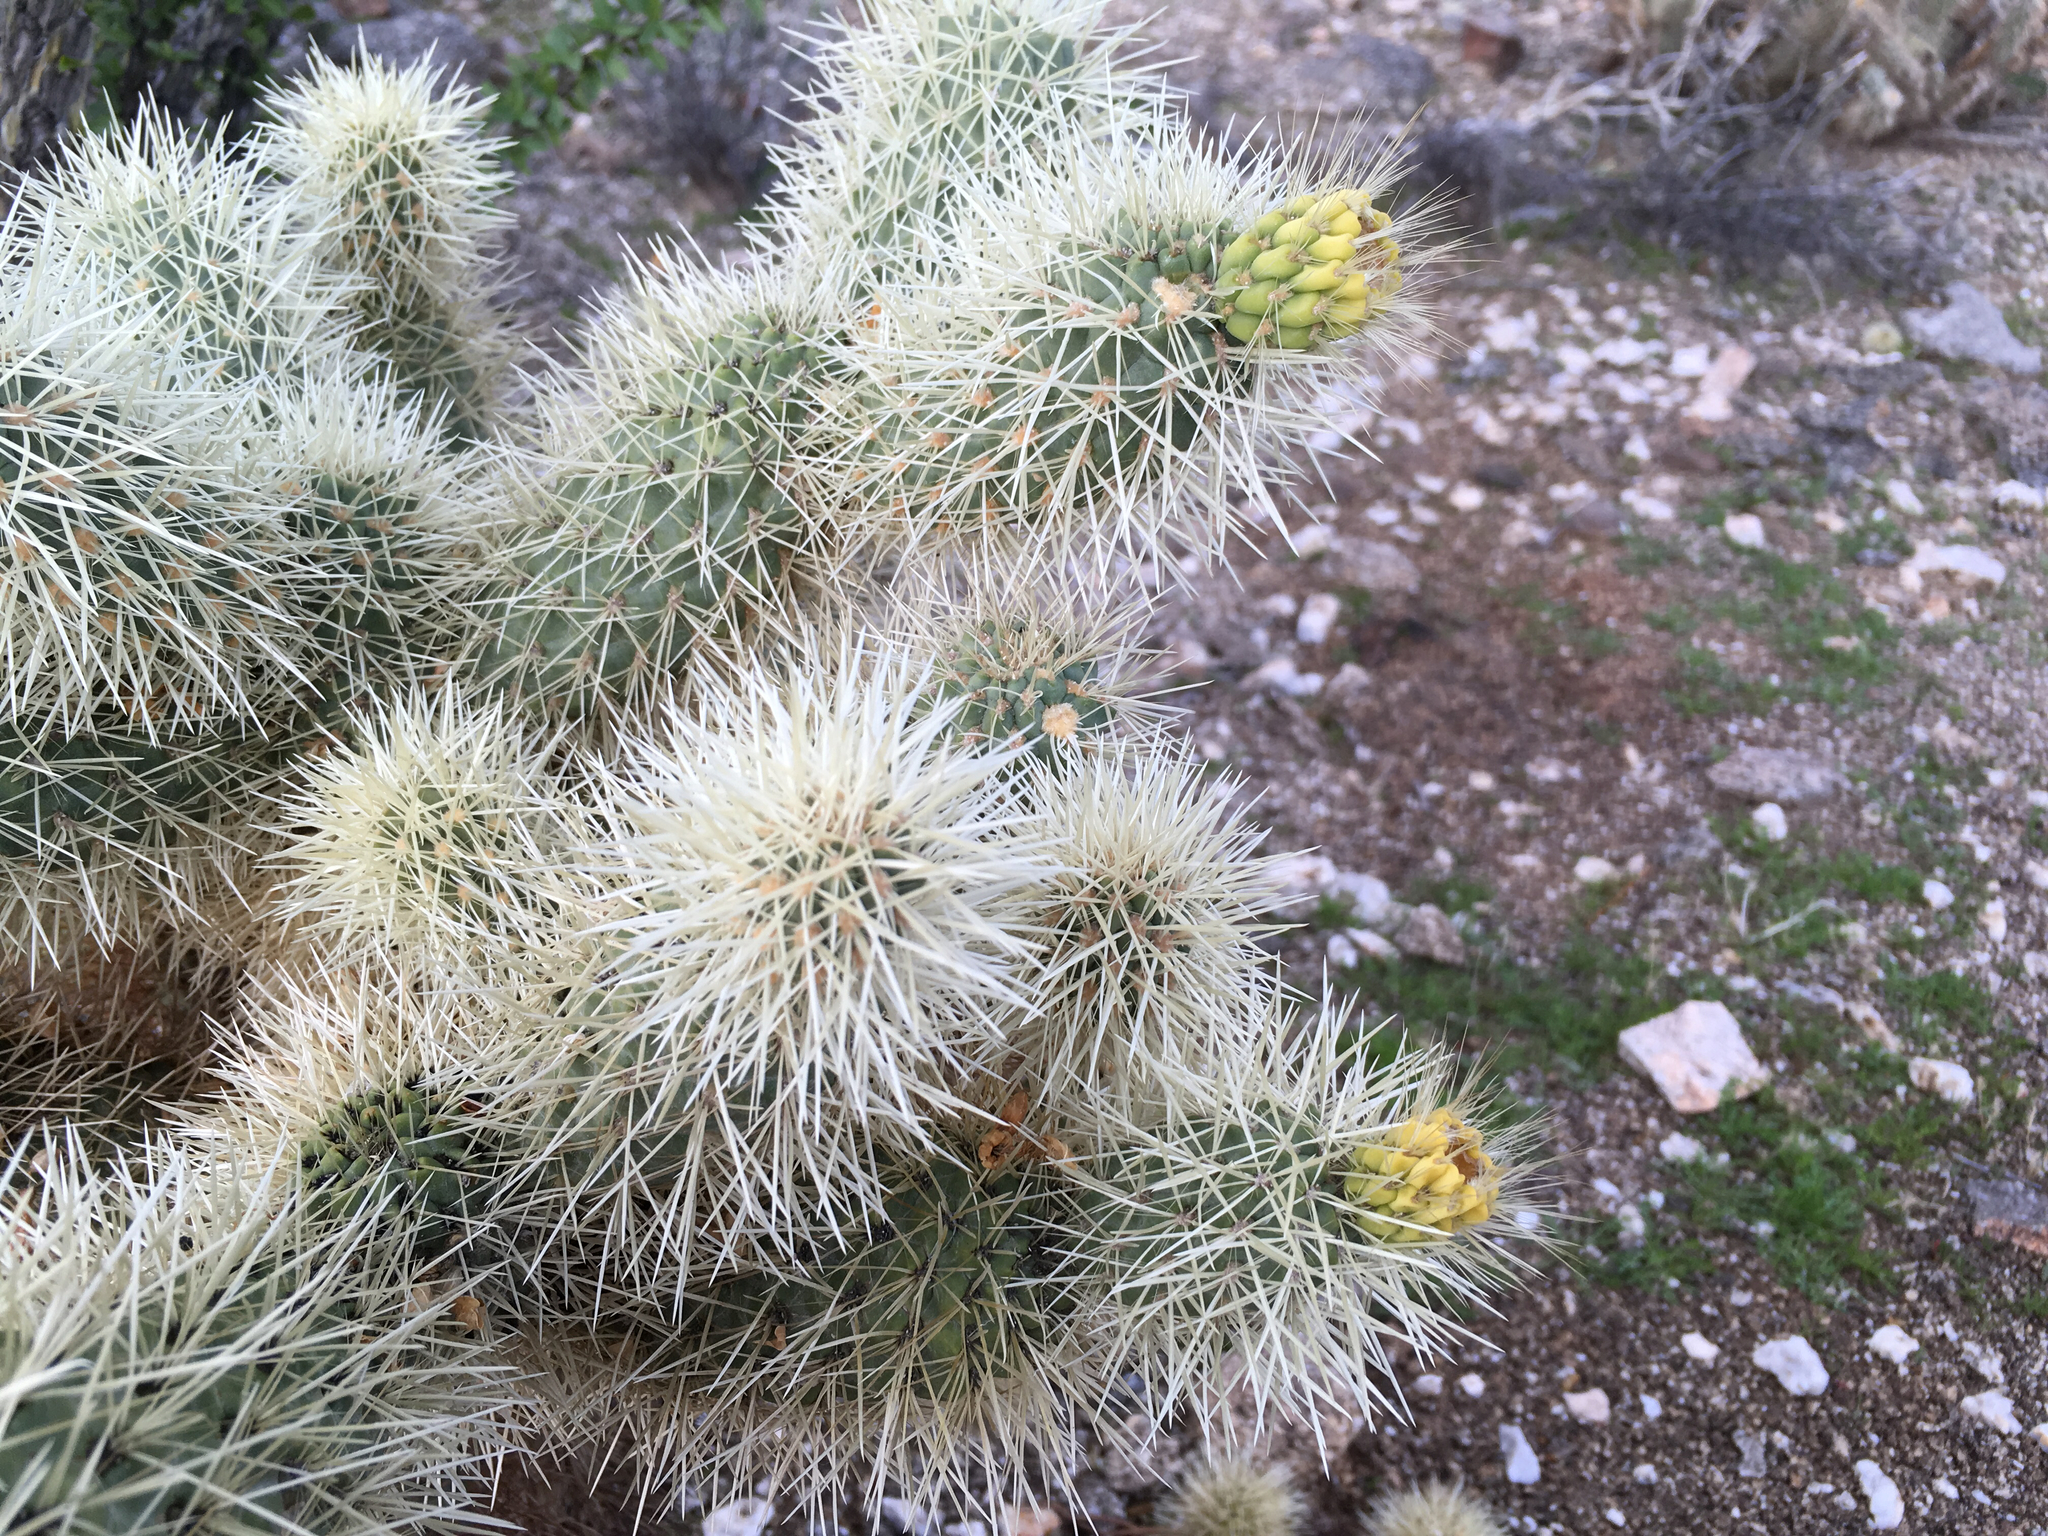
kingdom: Plantae
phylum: Tracheophyta
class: Magnoliopsida
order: Caryophyllales
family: Cactaceae
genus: Cylindropuntia
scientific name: Cylindropuntia fosbergii
